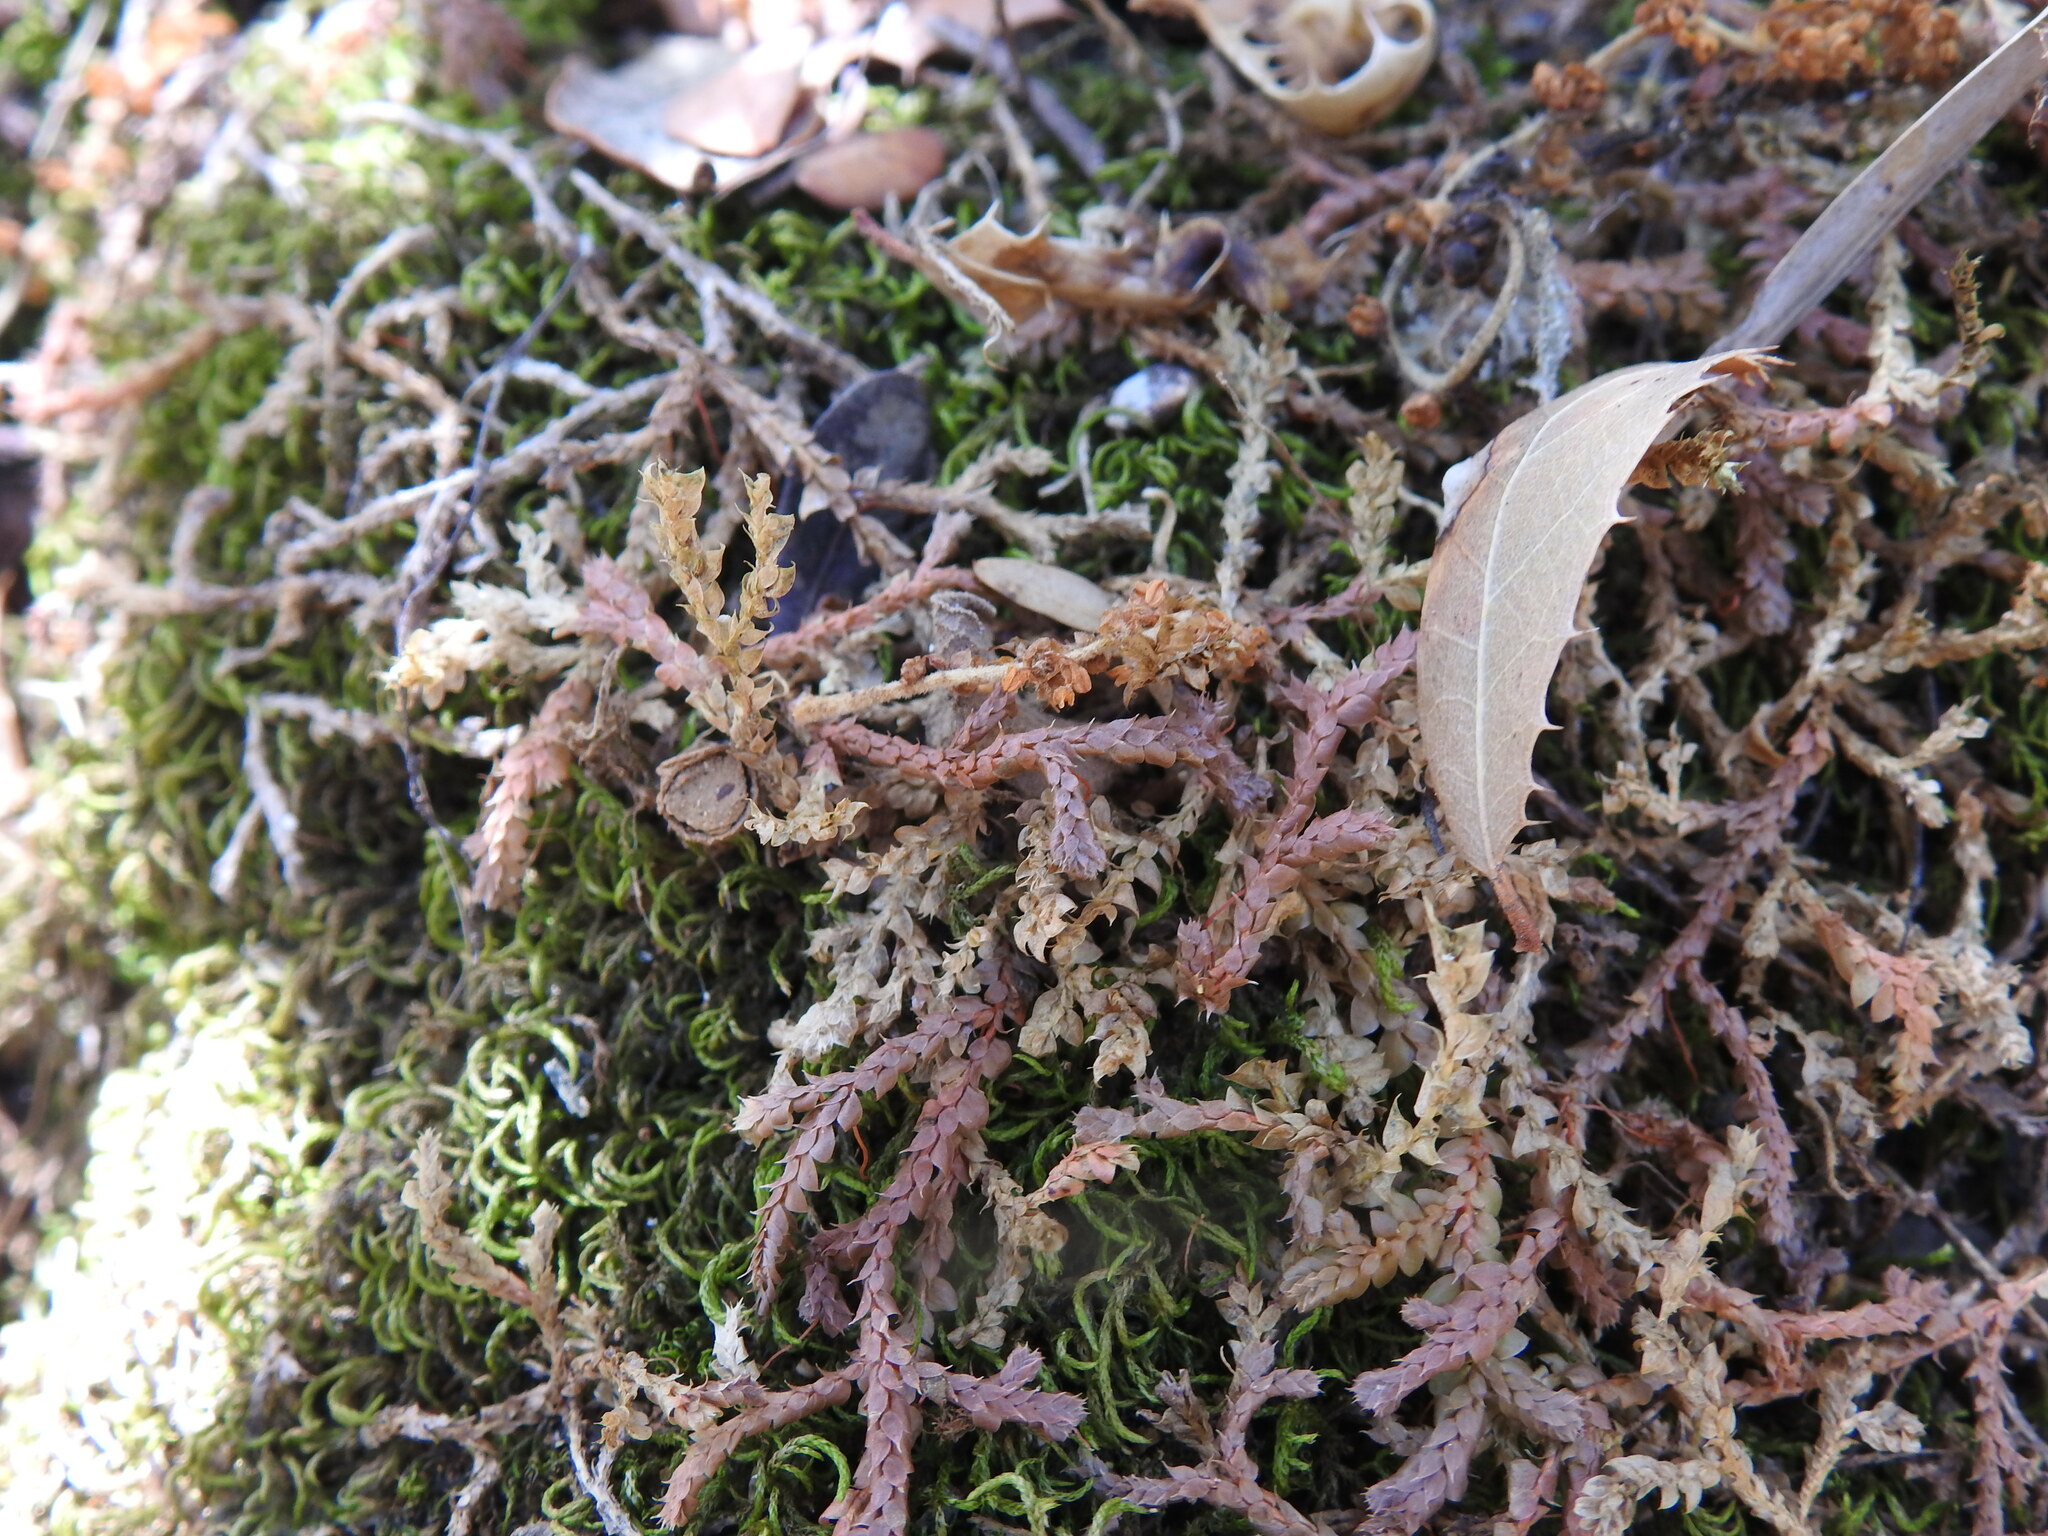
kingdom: Plantae
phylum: Tracheophyta
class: Lycopodiopsida
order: Selaginellales
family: Selaginellaceae
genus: Selaginella
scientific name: Selaginella denticulata
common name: Toothed-leaved clubmoss
